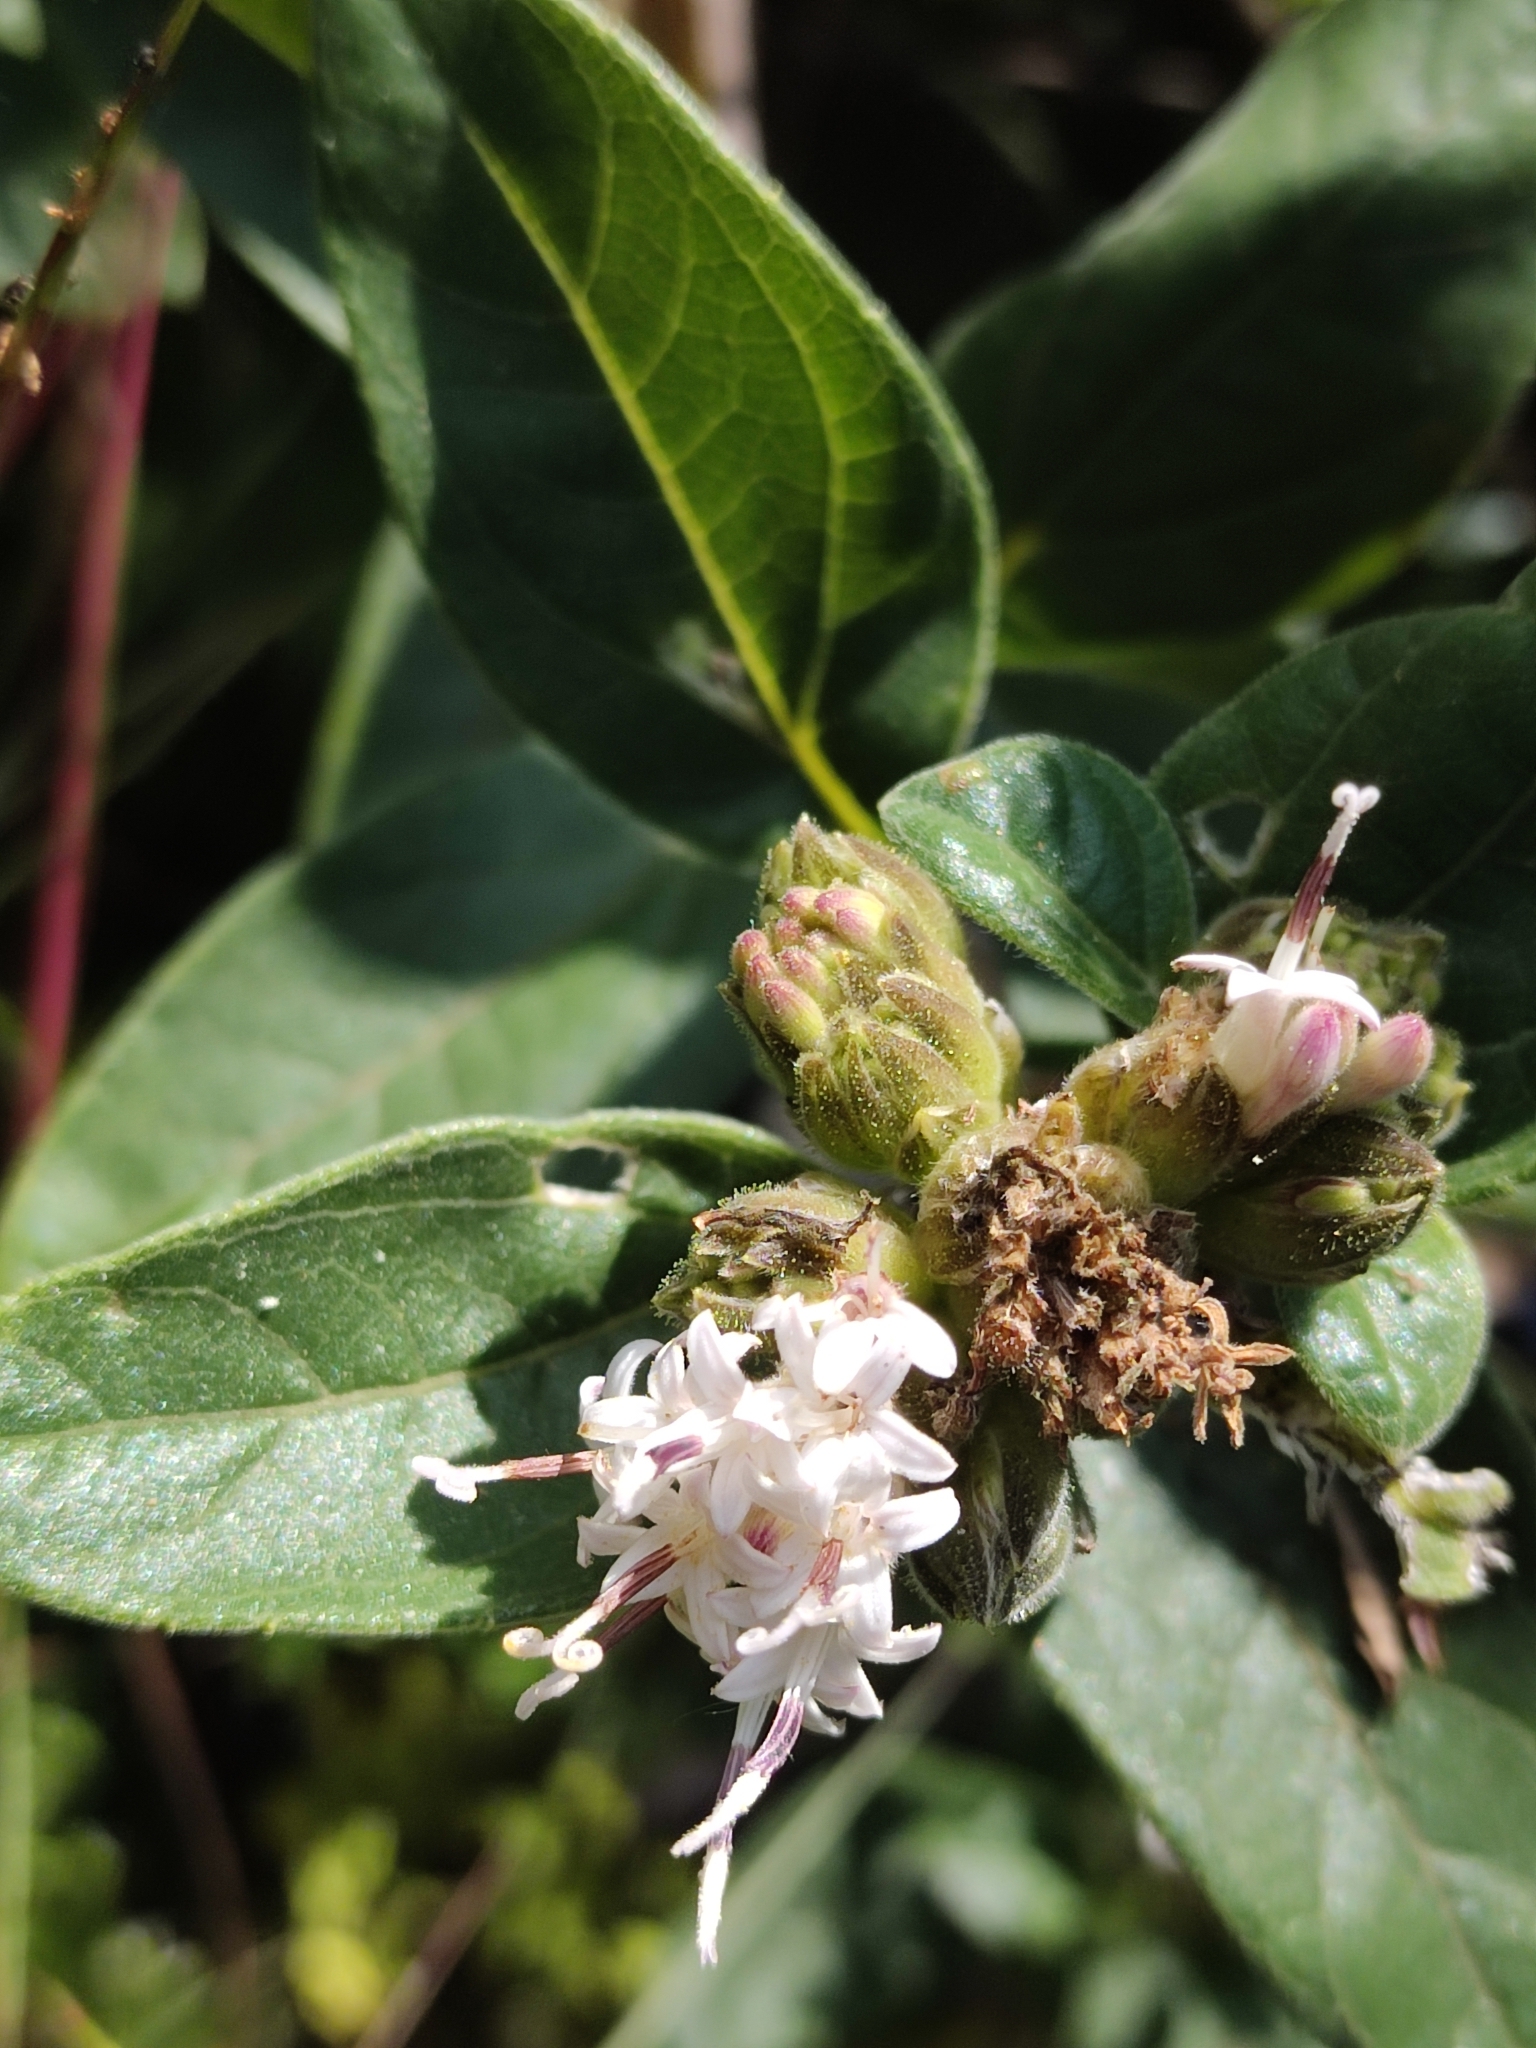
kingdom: Plantae
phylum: Tracheophyta
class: Magnoliopsida
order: Asterales
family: Asteraceae
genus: Lagascea
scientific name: Lagascea rigida
